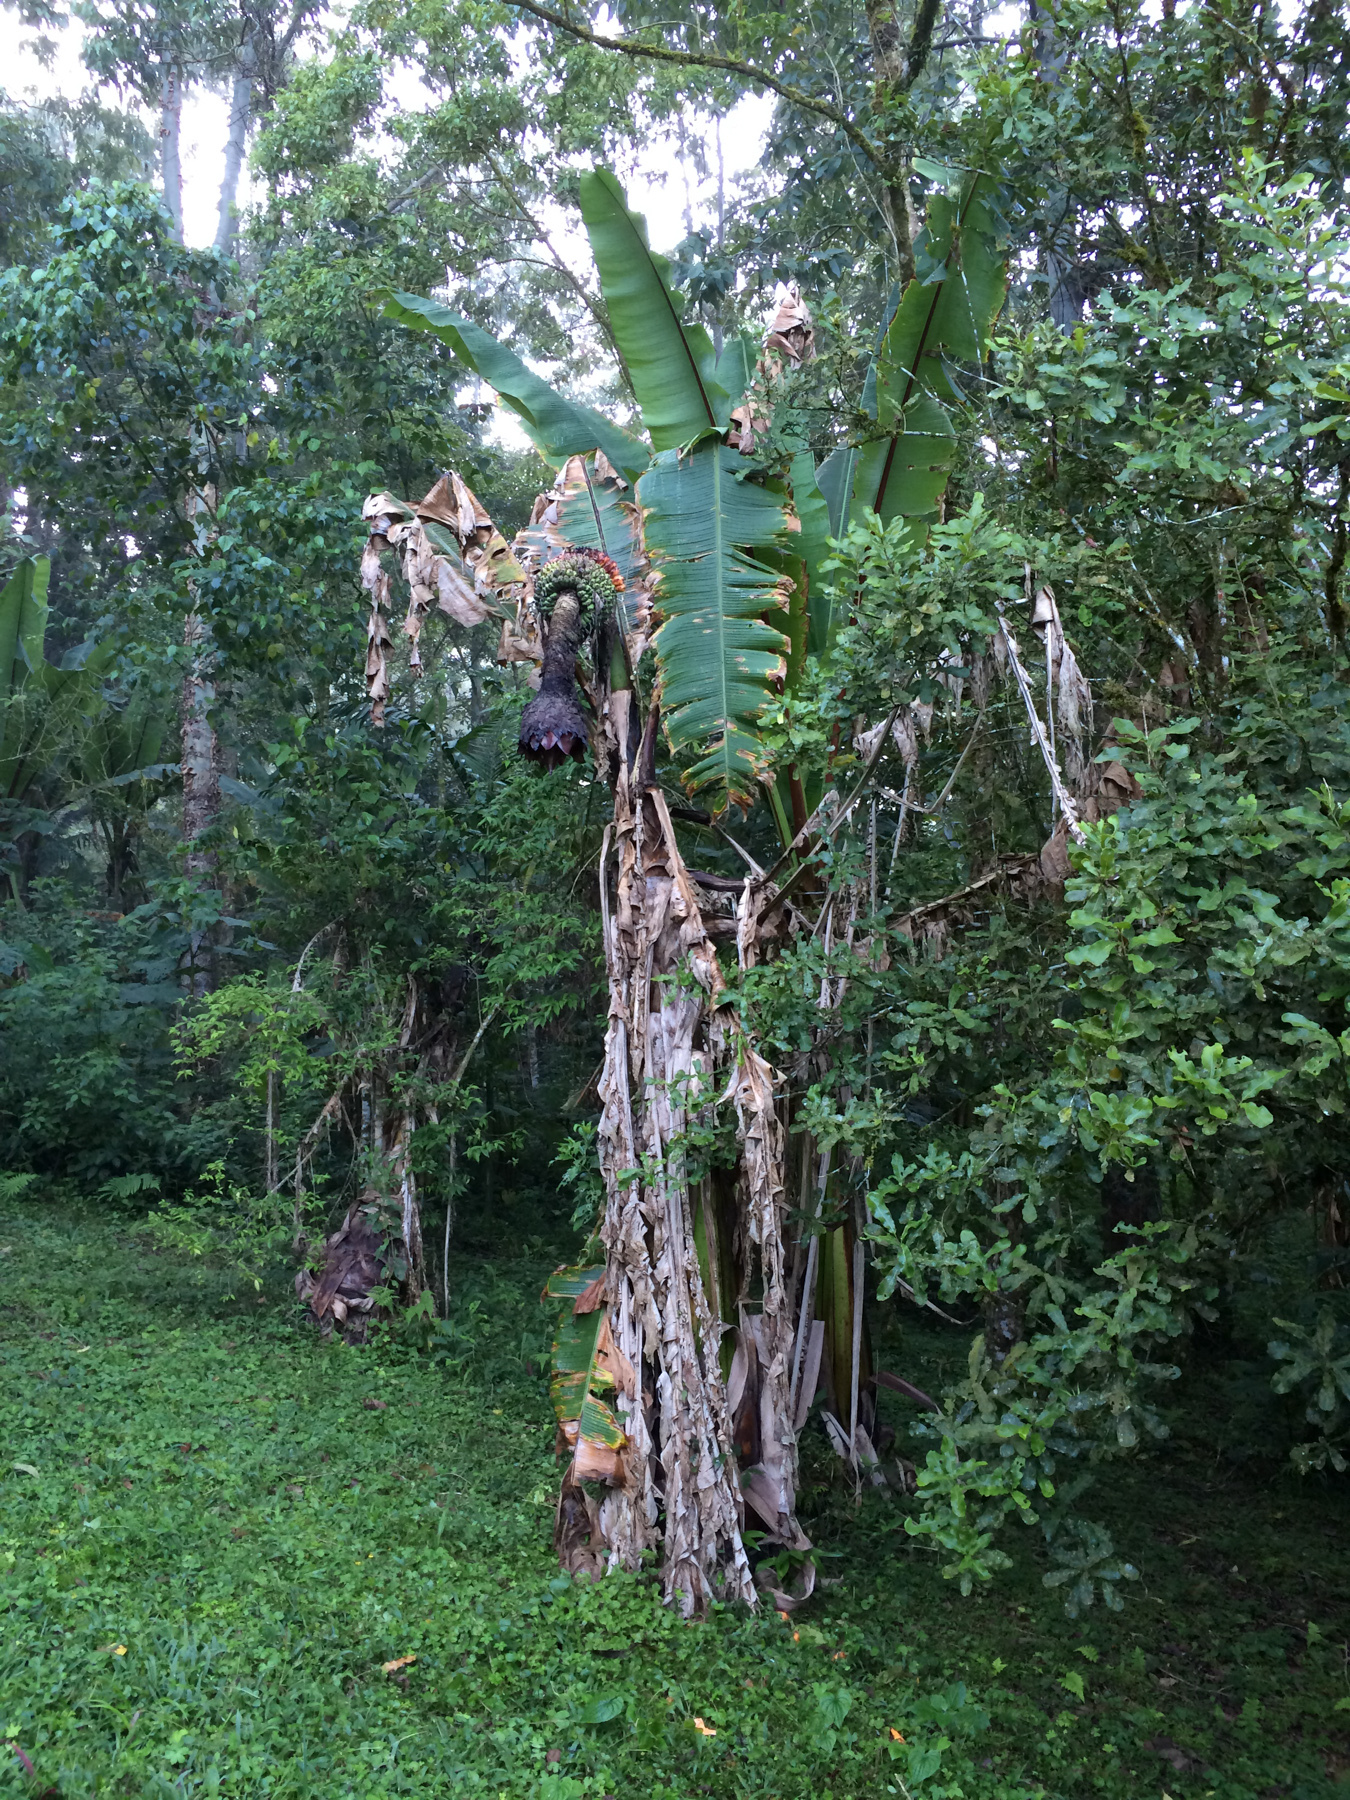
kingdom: Plantae
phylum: Tracheophyta
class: Liliopsida
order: Zingiberales
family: Musaceae
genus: Ensete
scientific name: Ensete ventricosum
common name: Abyssinian banana
